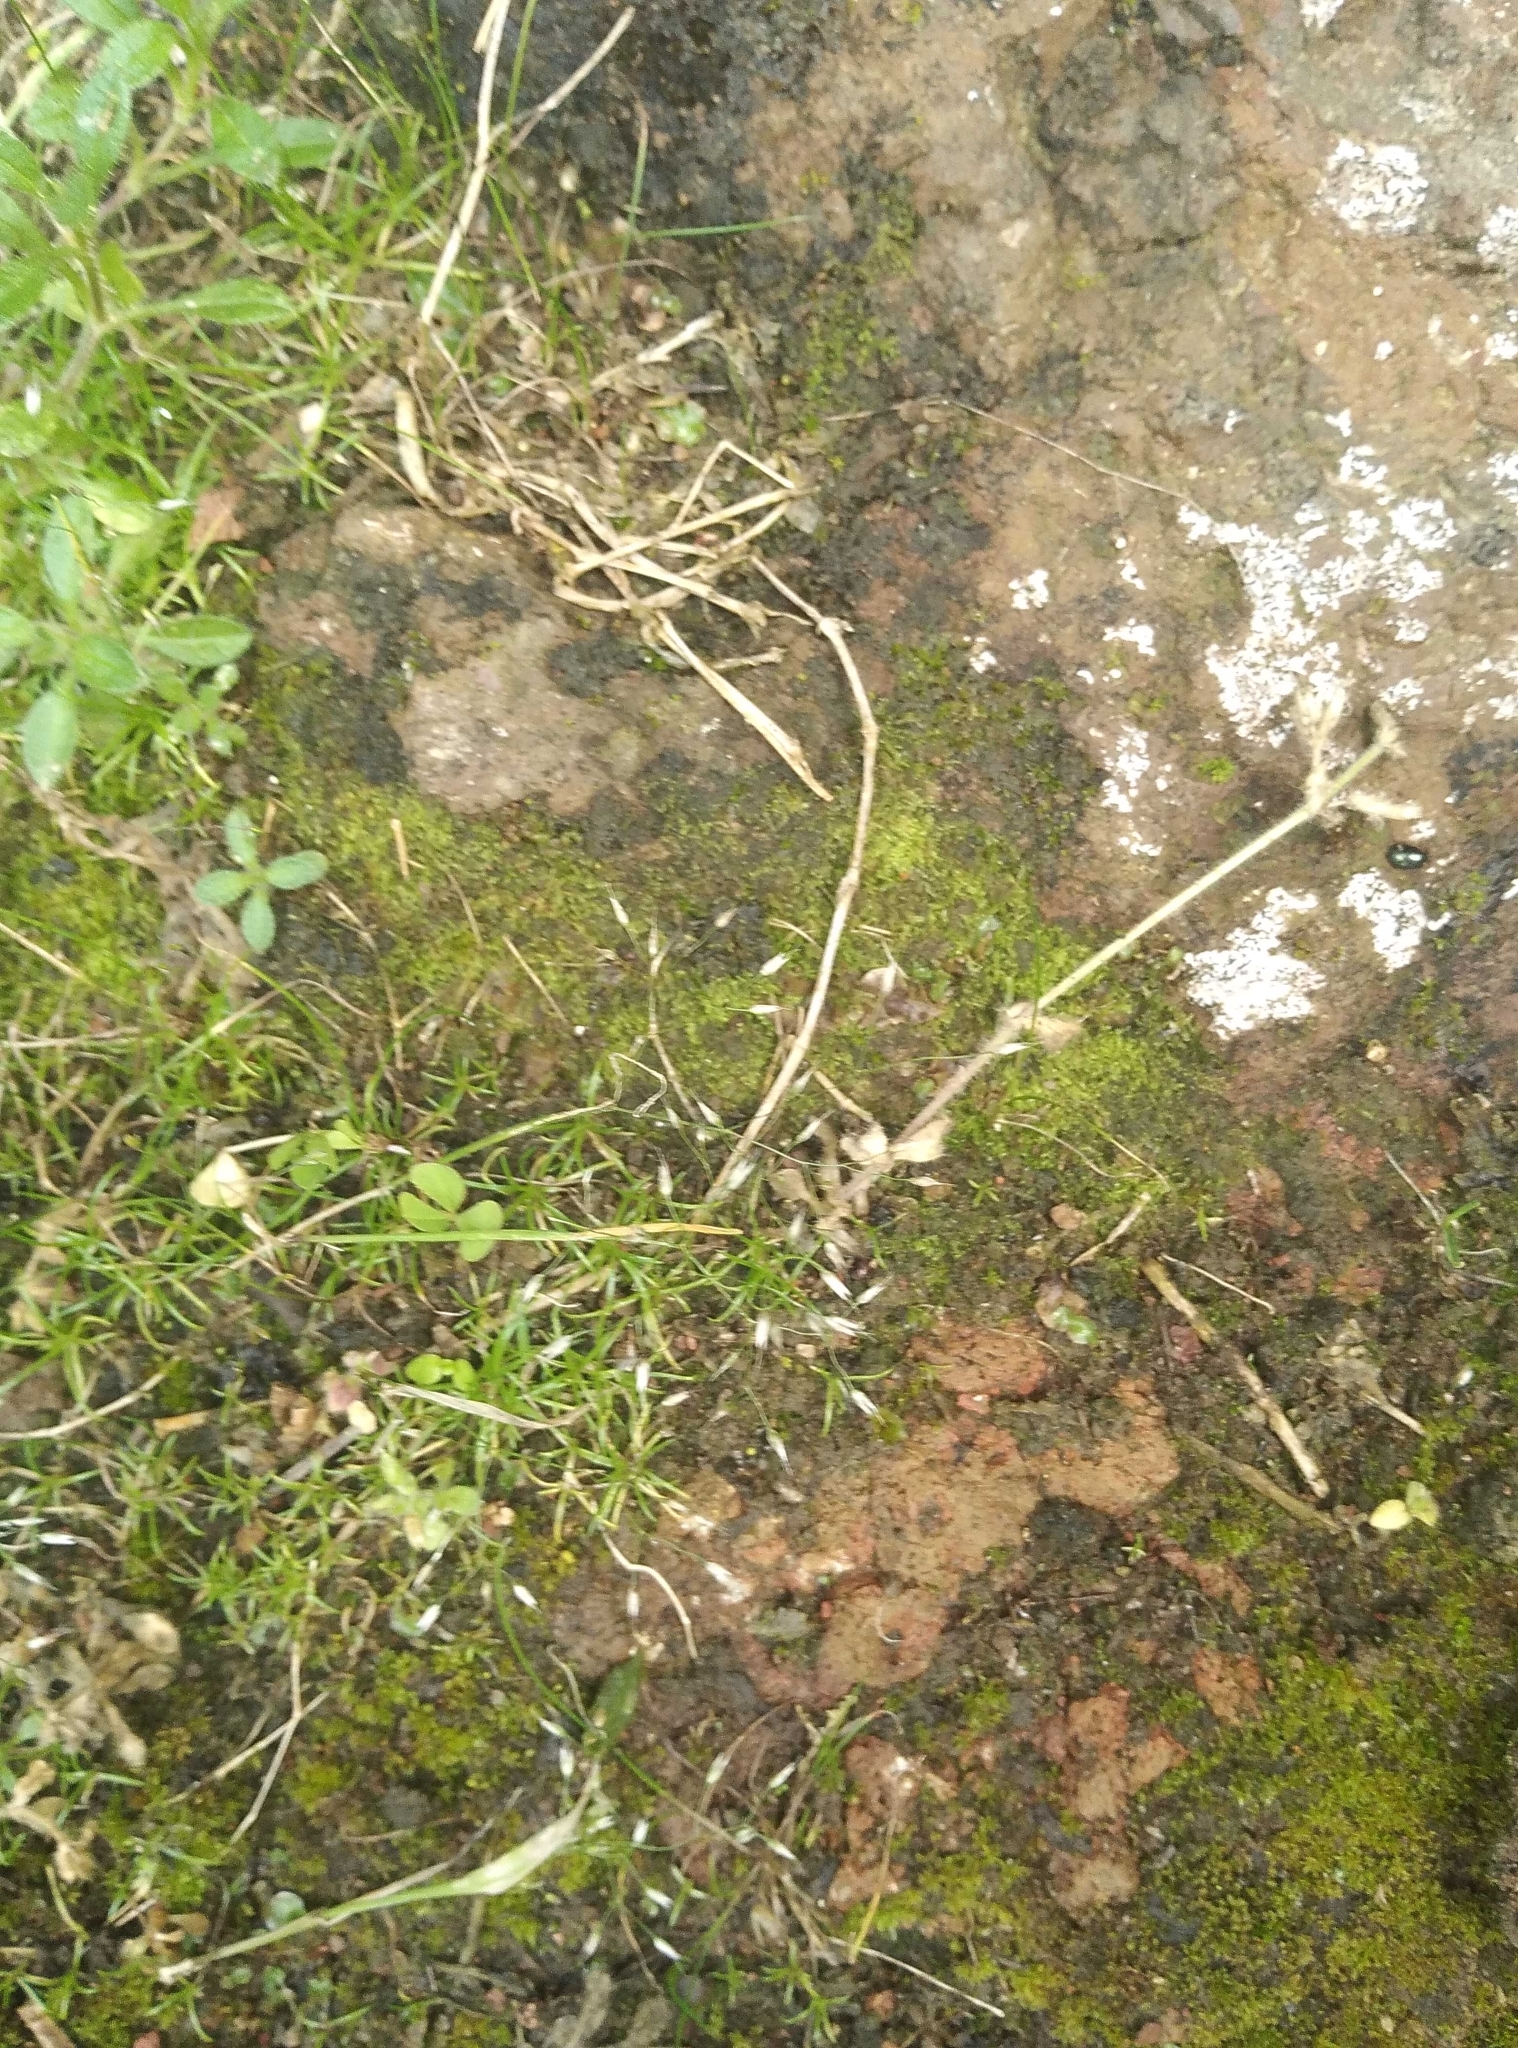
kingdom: Plantae
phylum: Tracheophyta
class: Liliopsida
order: Poales
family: Poaceae
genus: Aira
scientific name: Aira caryophyllea
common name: Silver hairgrass
